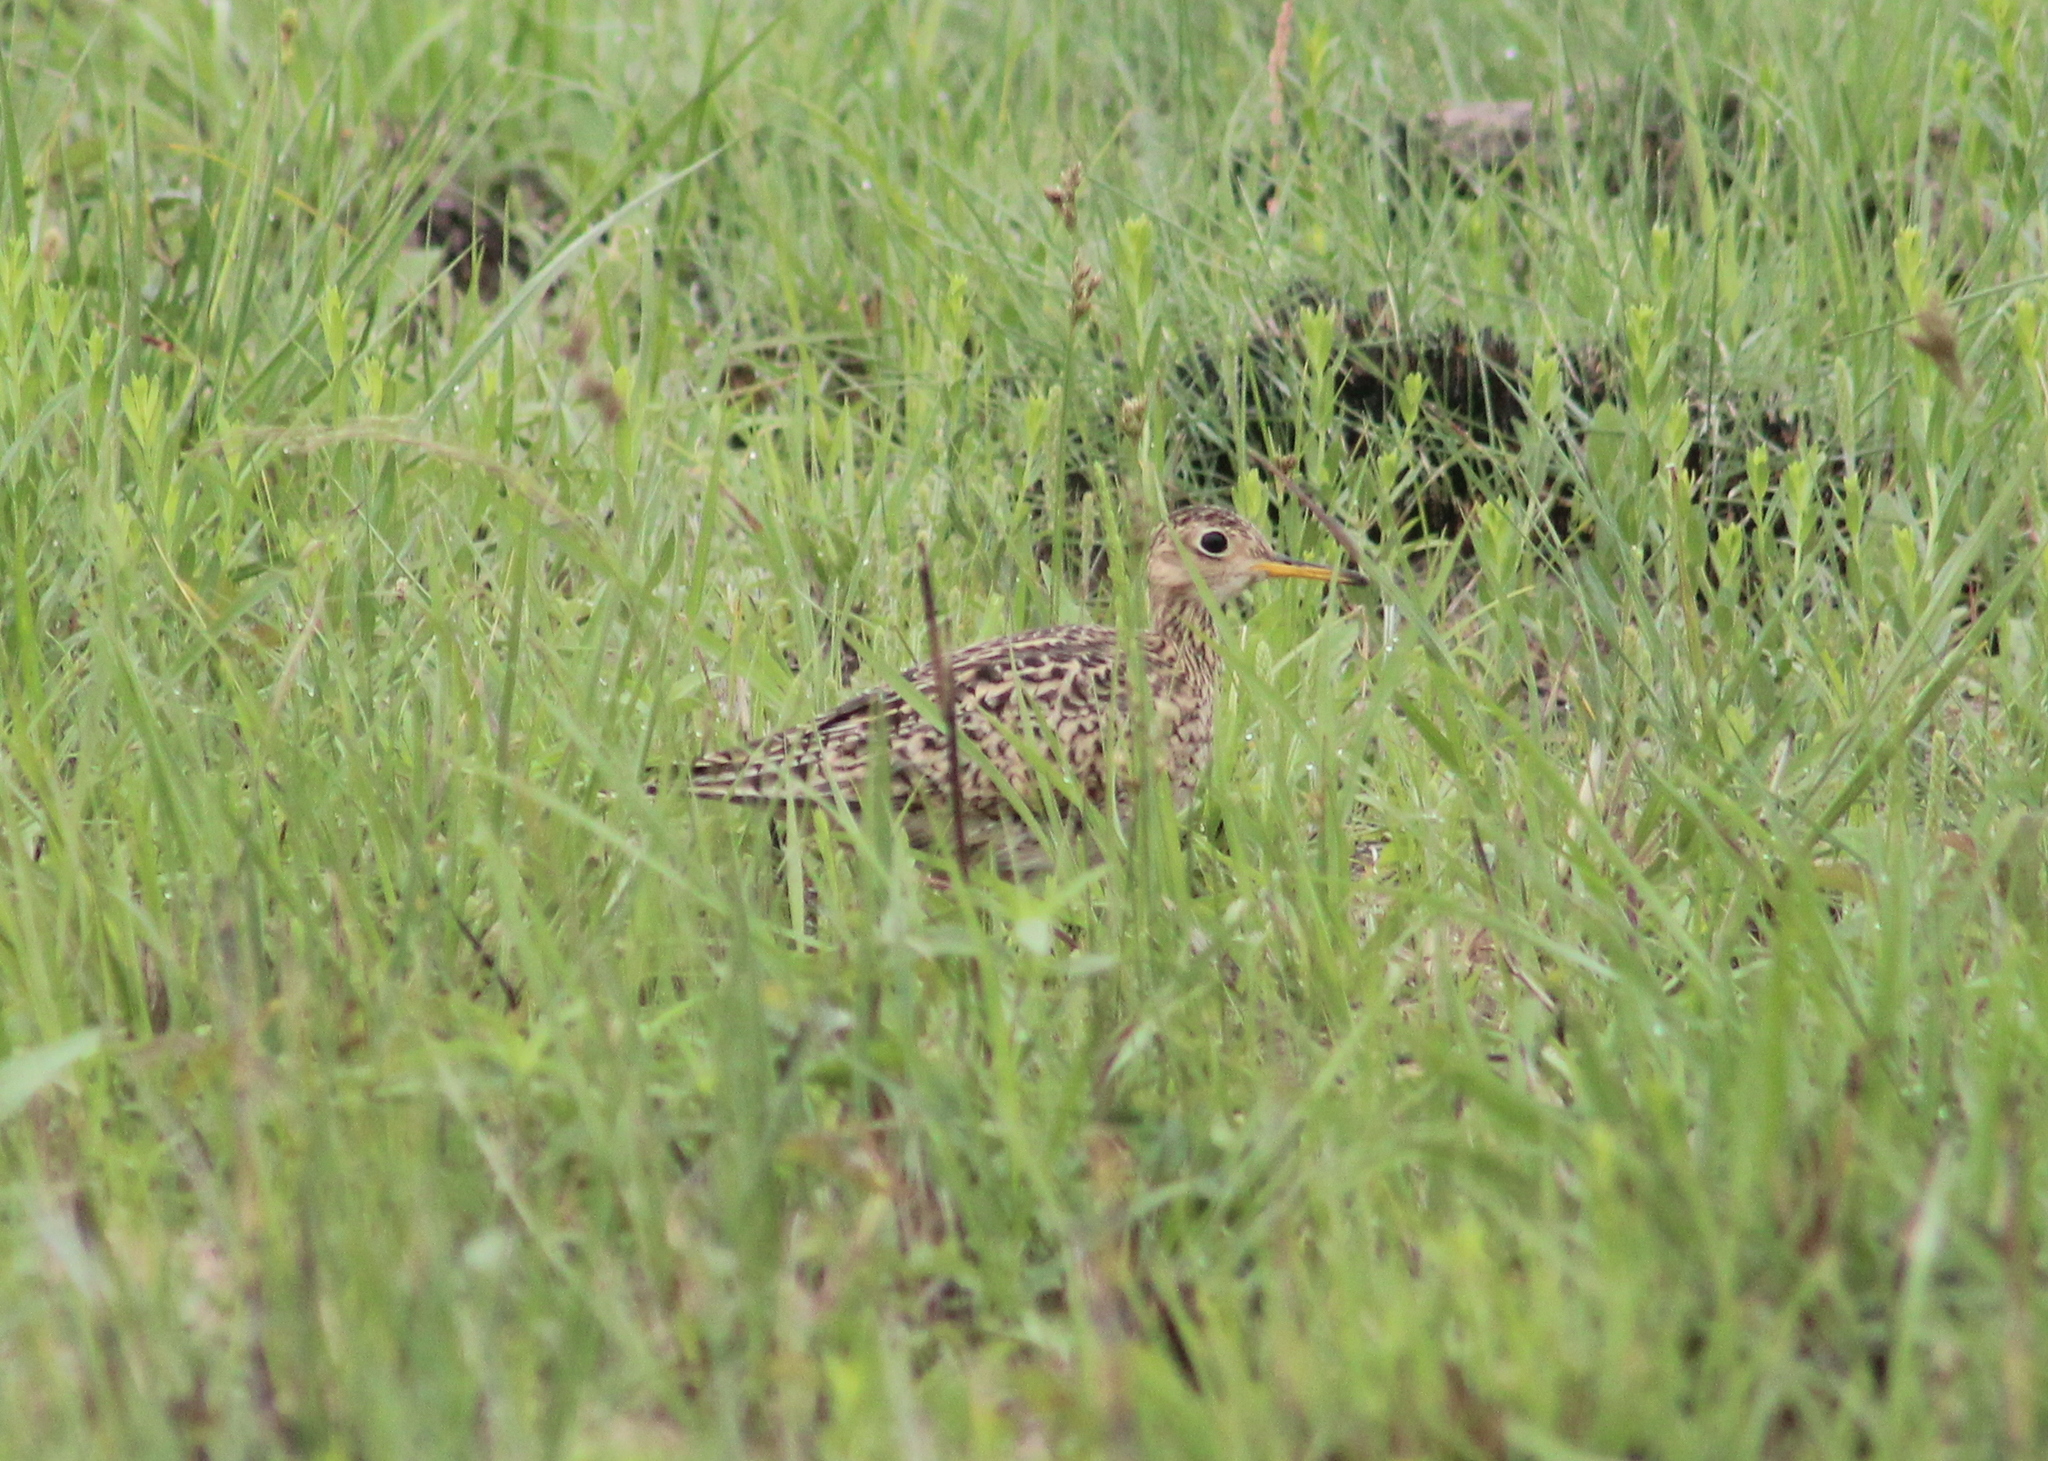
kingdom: Animalia
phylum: Chordata
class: Aves
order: Charadriiformes
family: Scolopacidae
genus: Bartramia
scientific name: Bartramia longicauda
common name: Upland sandpiper
